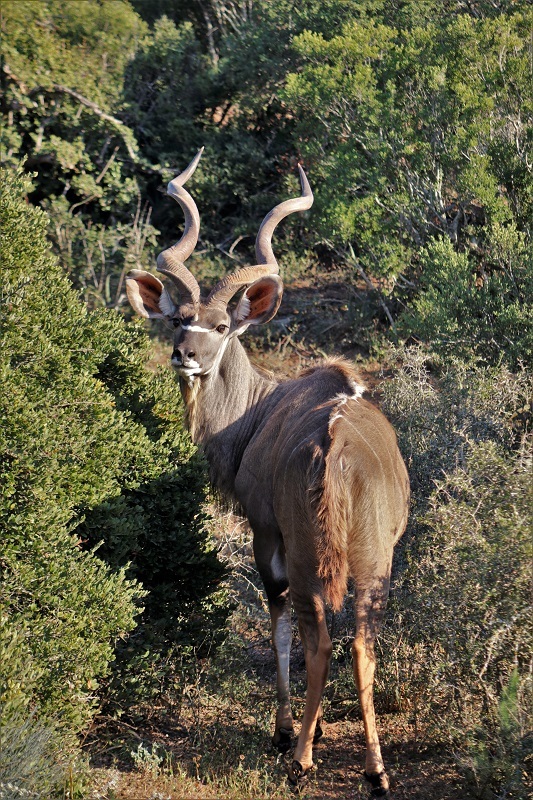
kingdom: Animalia
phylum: Chordata
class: Mammalia
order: Artiodactyla
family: Bovidae
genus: Tragelaphus
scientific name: Tragelaphus strepsiceros
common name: Greater kudu
